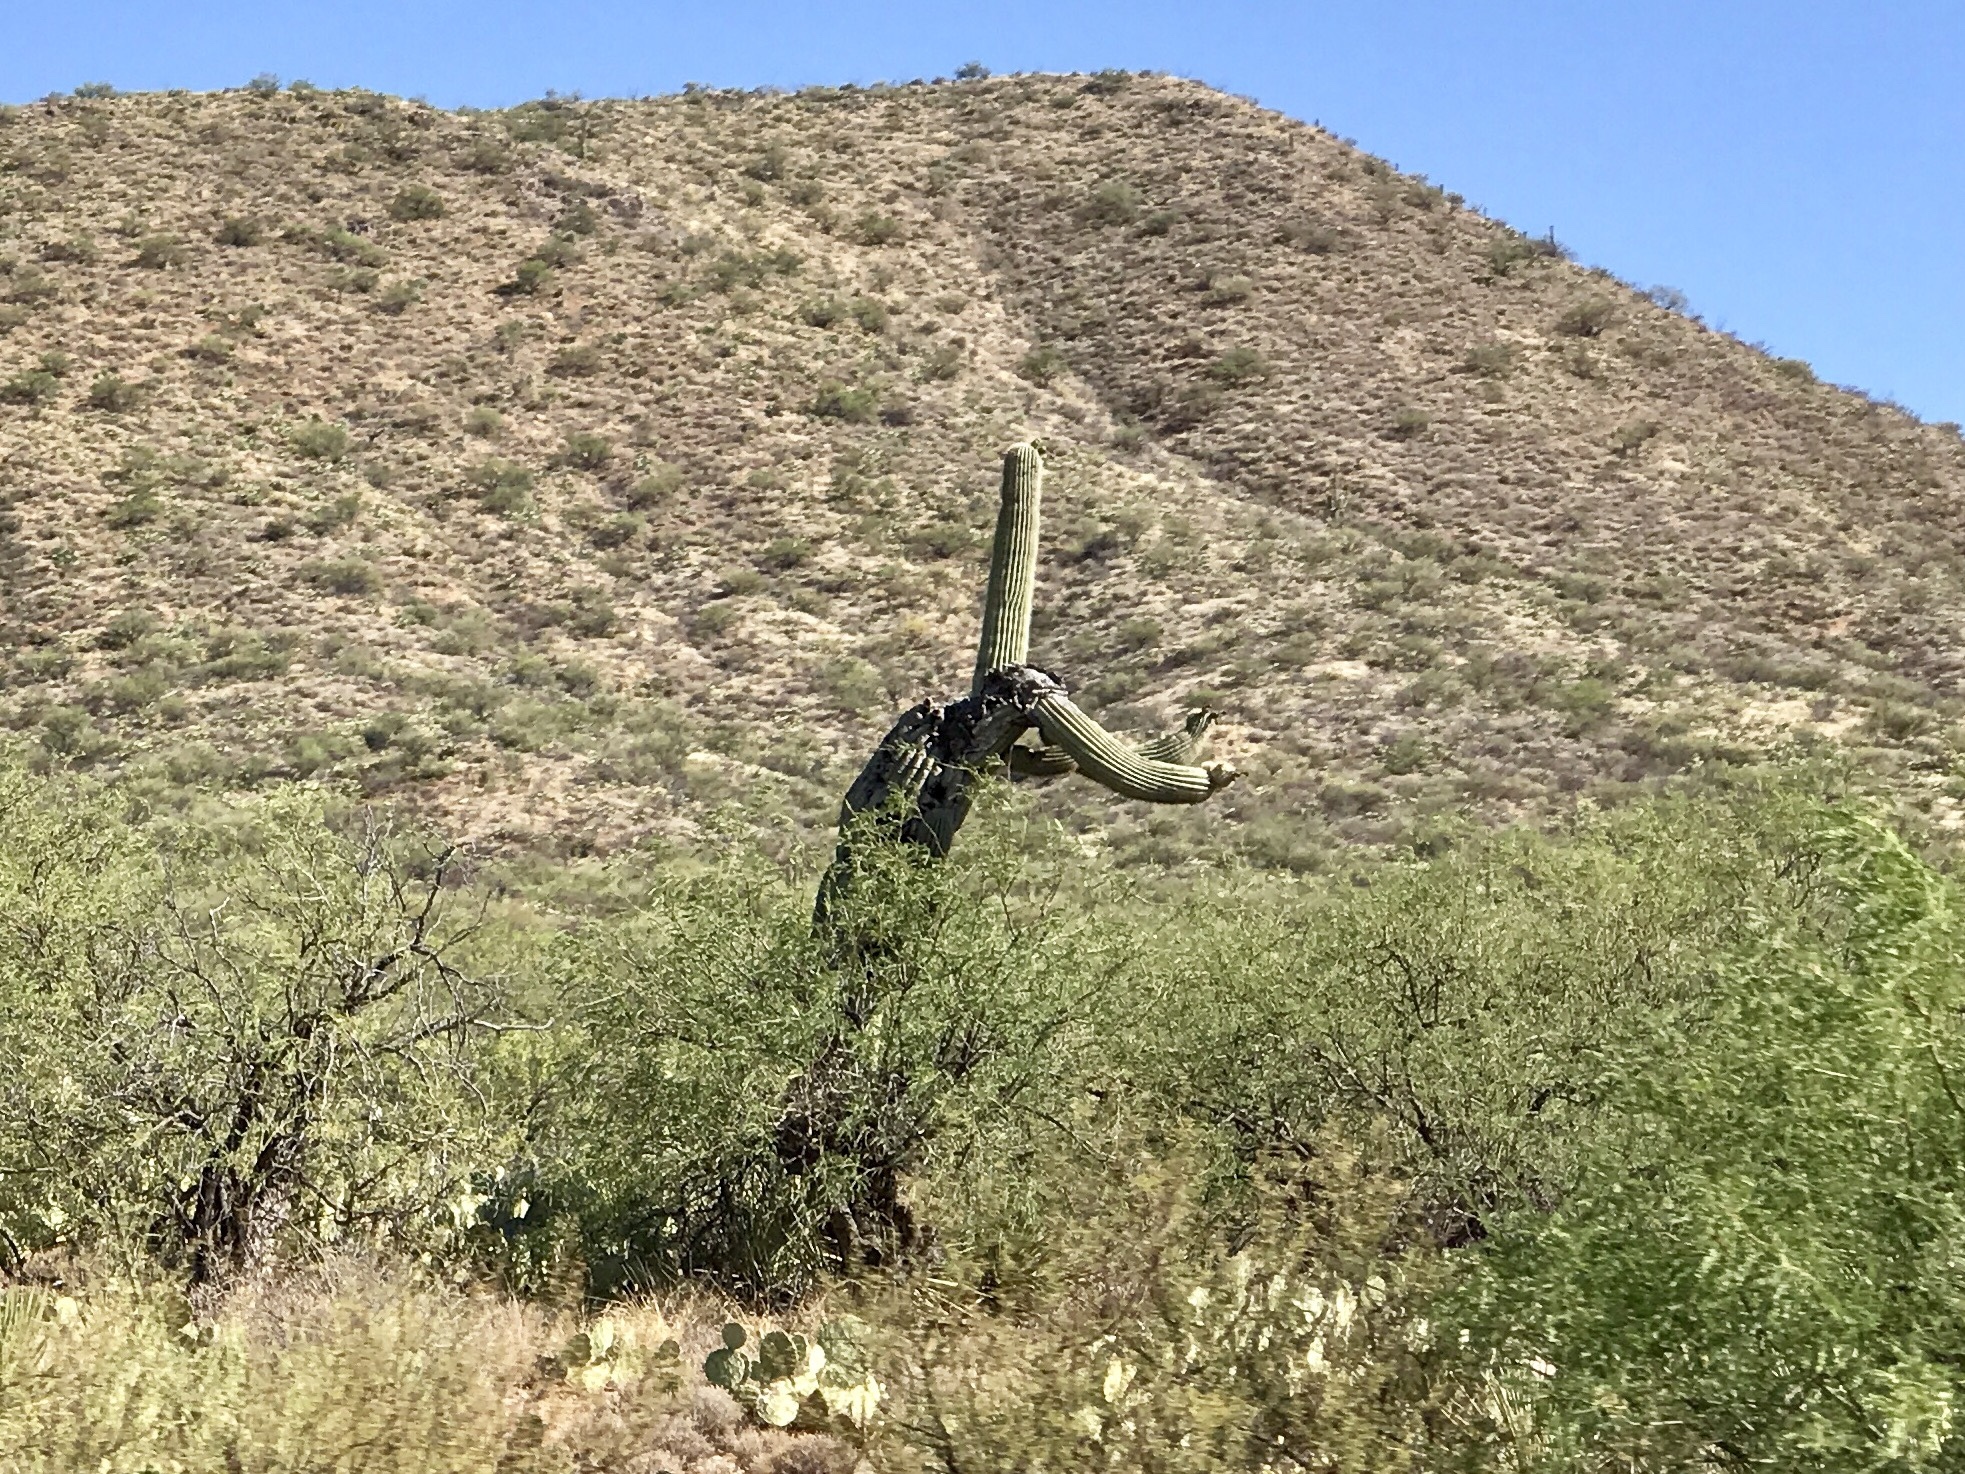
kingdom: Plantae
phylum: Tracheophyta
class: Magnoliopsida
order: Caryophyllales
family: Cactaceae
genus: Carnegiea
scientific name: Carnegiea gigantea
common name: Saguaro
